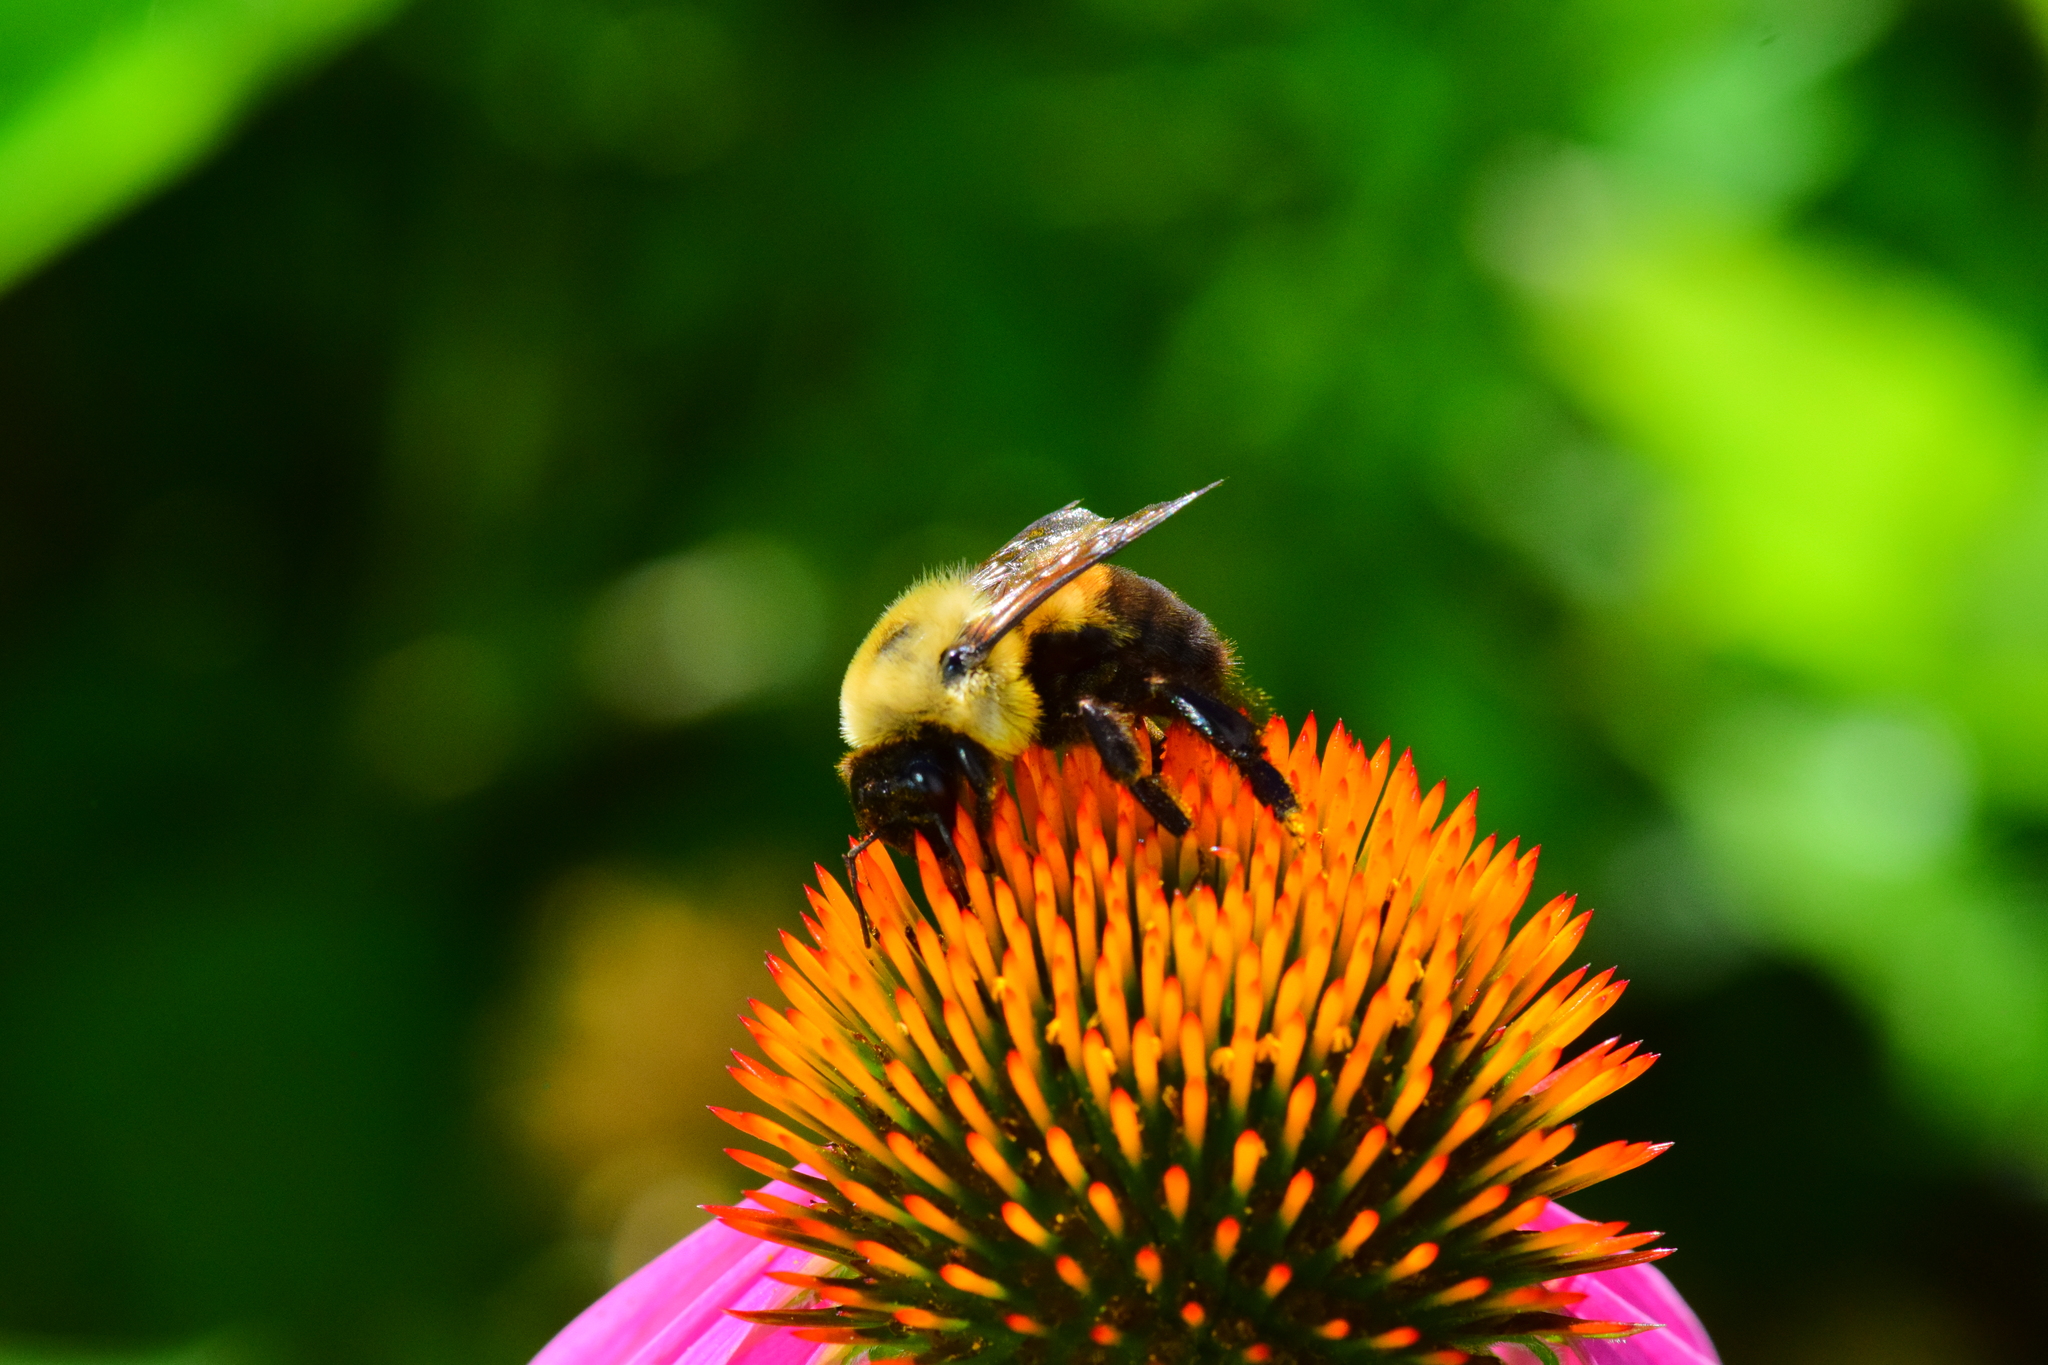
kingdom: Animalia
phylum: Arthropoda
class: Insecta
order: Hymenoptera
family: Apidae
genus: Bombus
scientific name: Bombus griseocollis
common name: Brown-belted bumble bee
